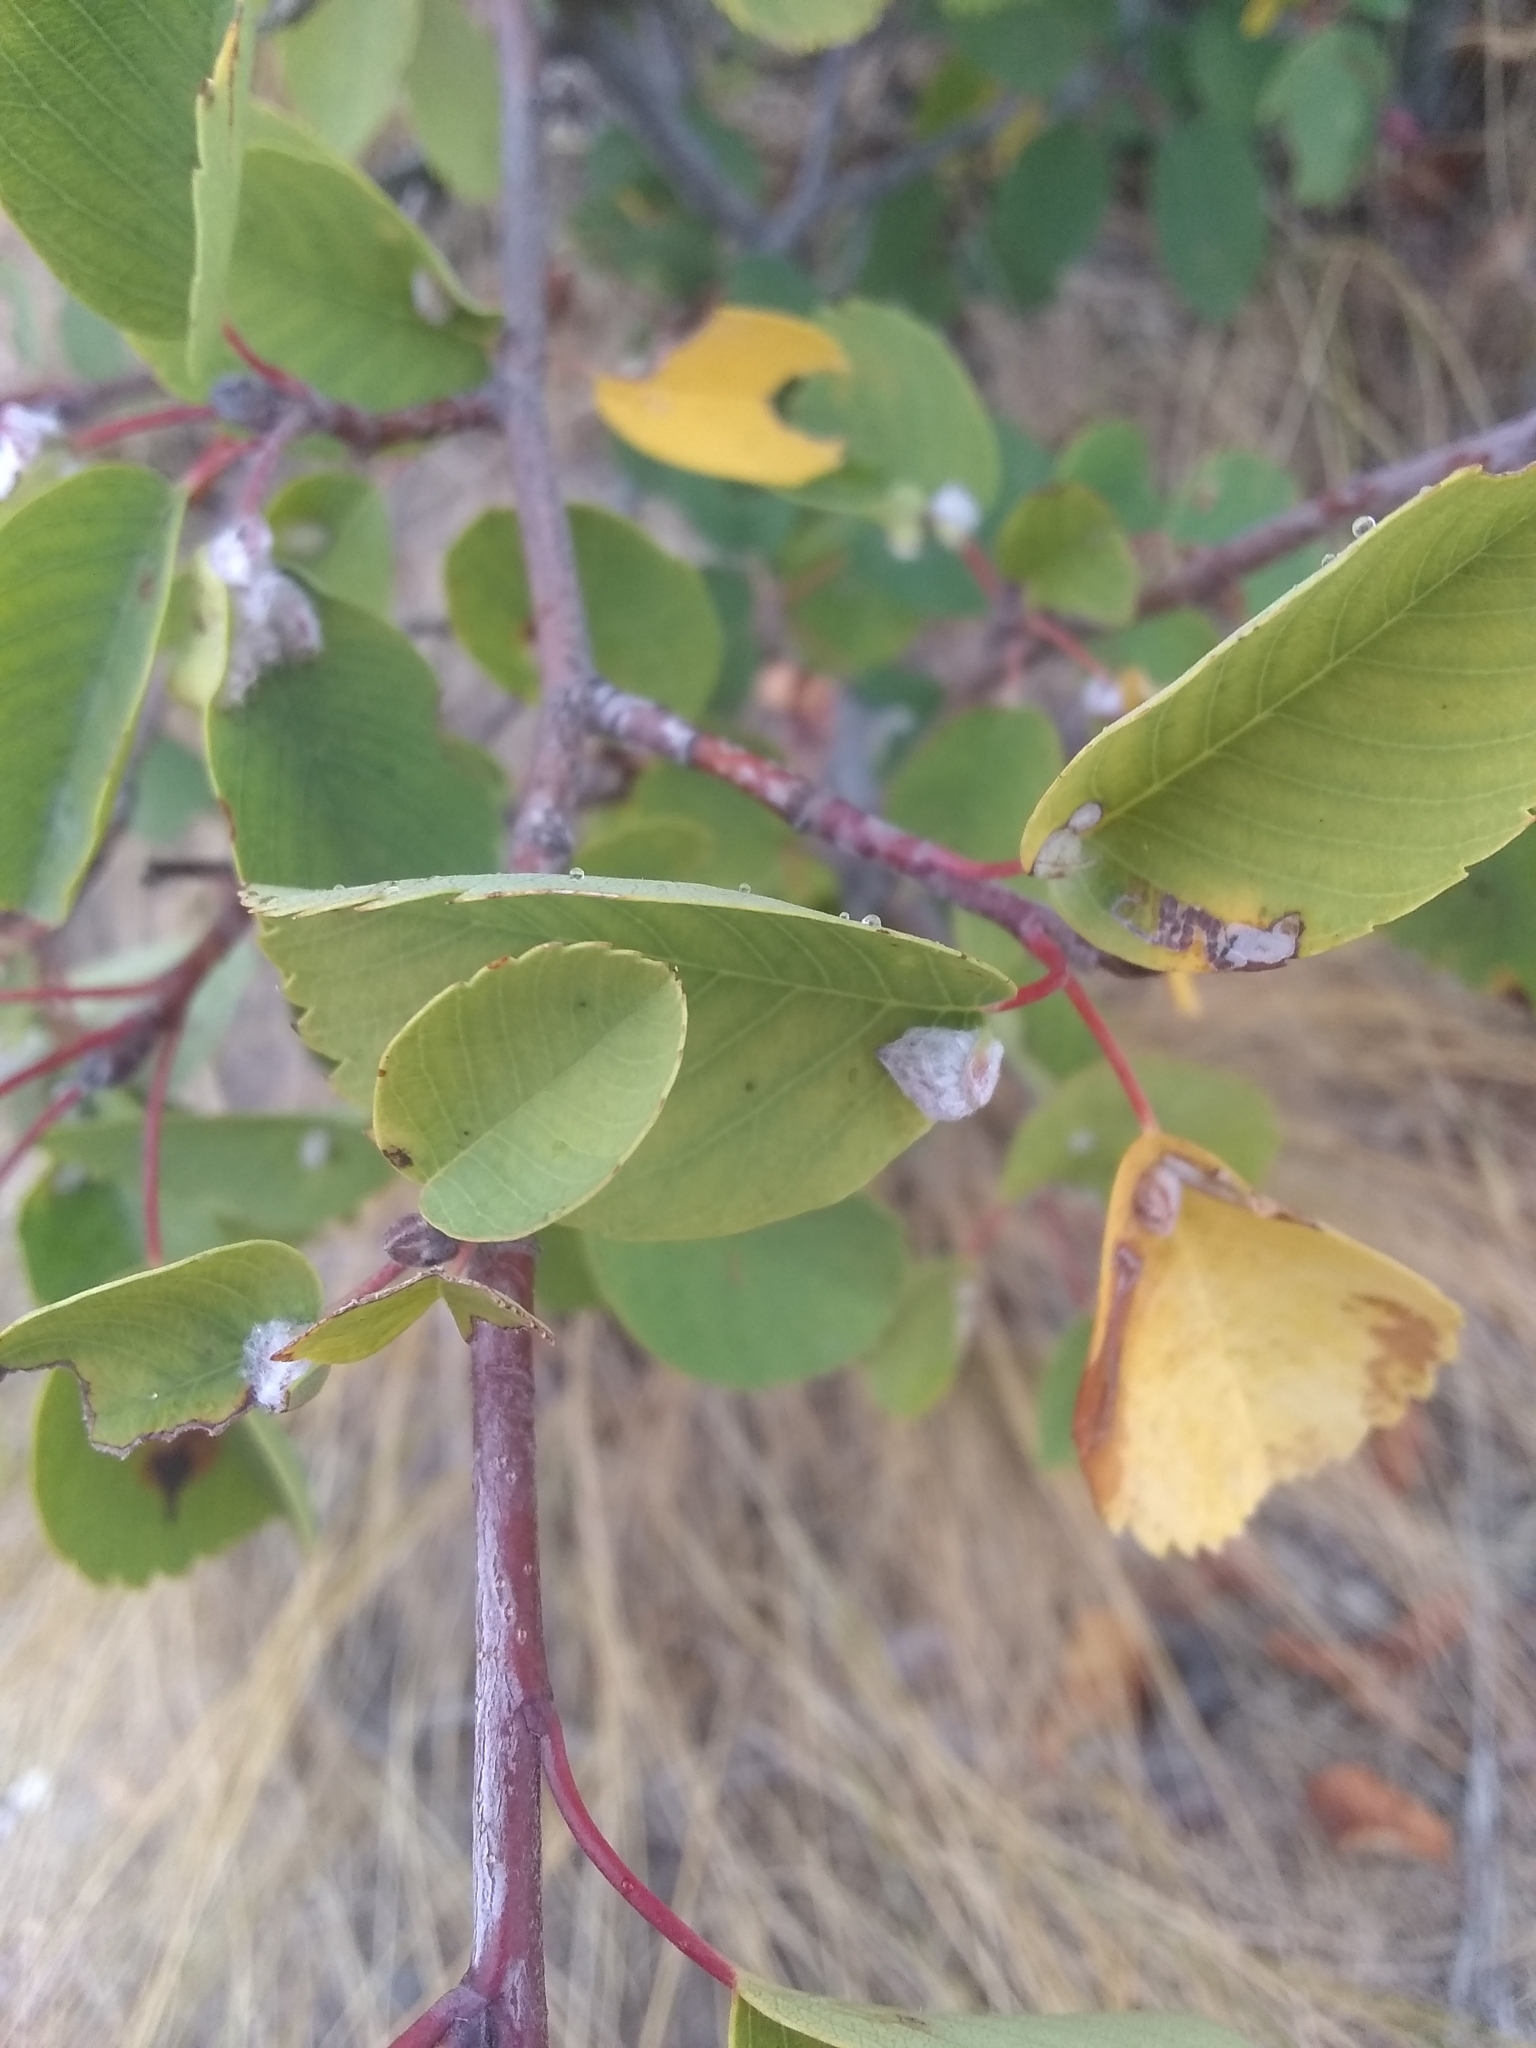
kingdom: Animalia
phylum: Arthropoda
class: Insecta
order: Diptera
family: Cecidomyiidae
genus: Blaesodiplosis
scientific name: Blaesodiplosis canadensis
